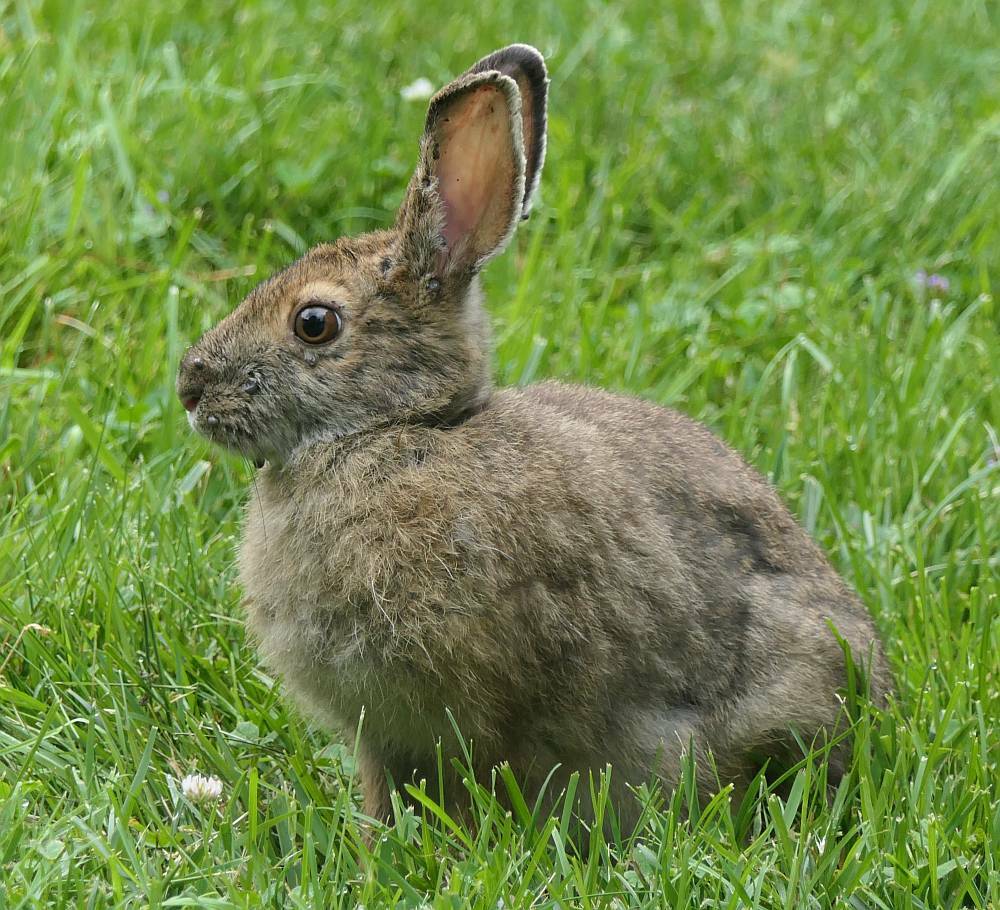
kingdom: Animalia
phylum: Chordata
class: Mammalia
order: Lagomorpha
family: Leporidae
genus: Lepus
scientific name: Lepus americanus
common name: Snowshoe hare
